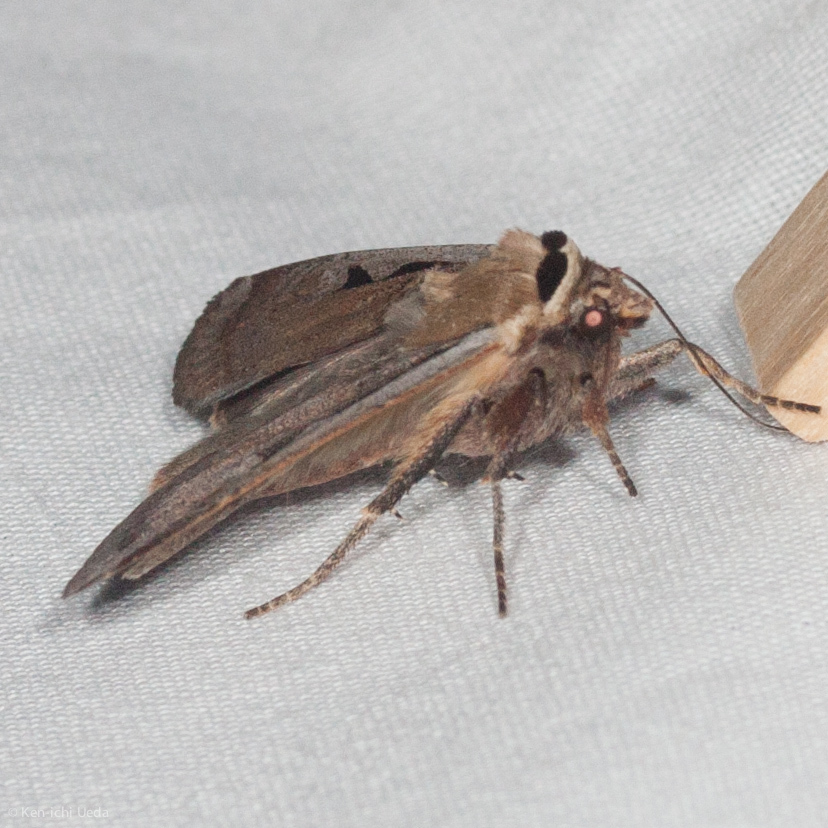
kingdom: Animalia
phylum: Arthropoda
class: Insecta
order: Lepidoptera
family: Noctuidae
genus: Parabagrotis
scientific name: Parabagrotis formalis
